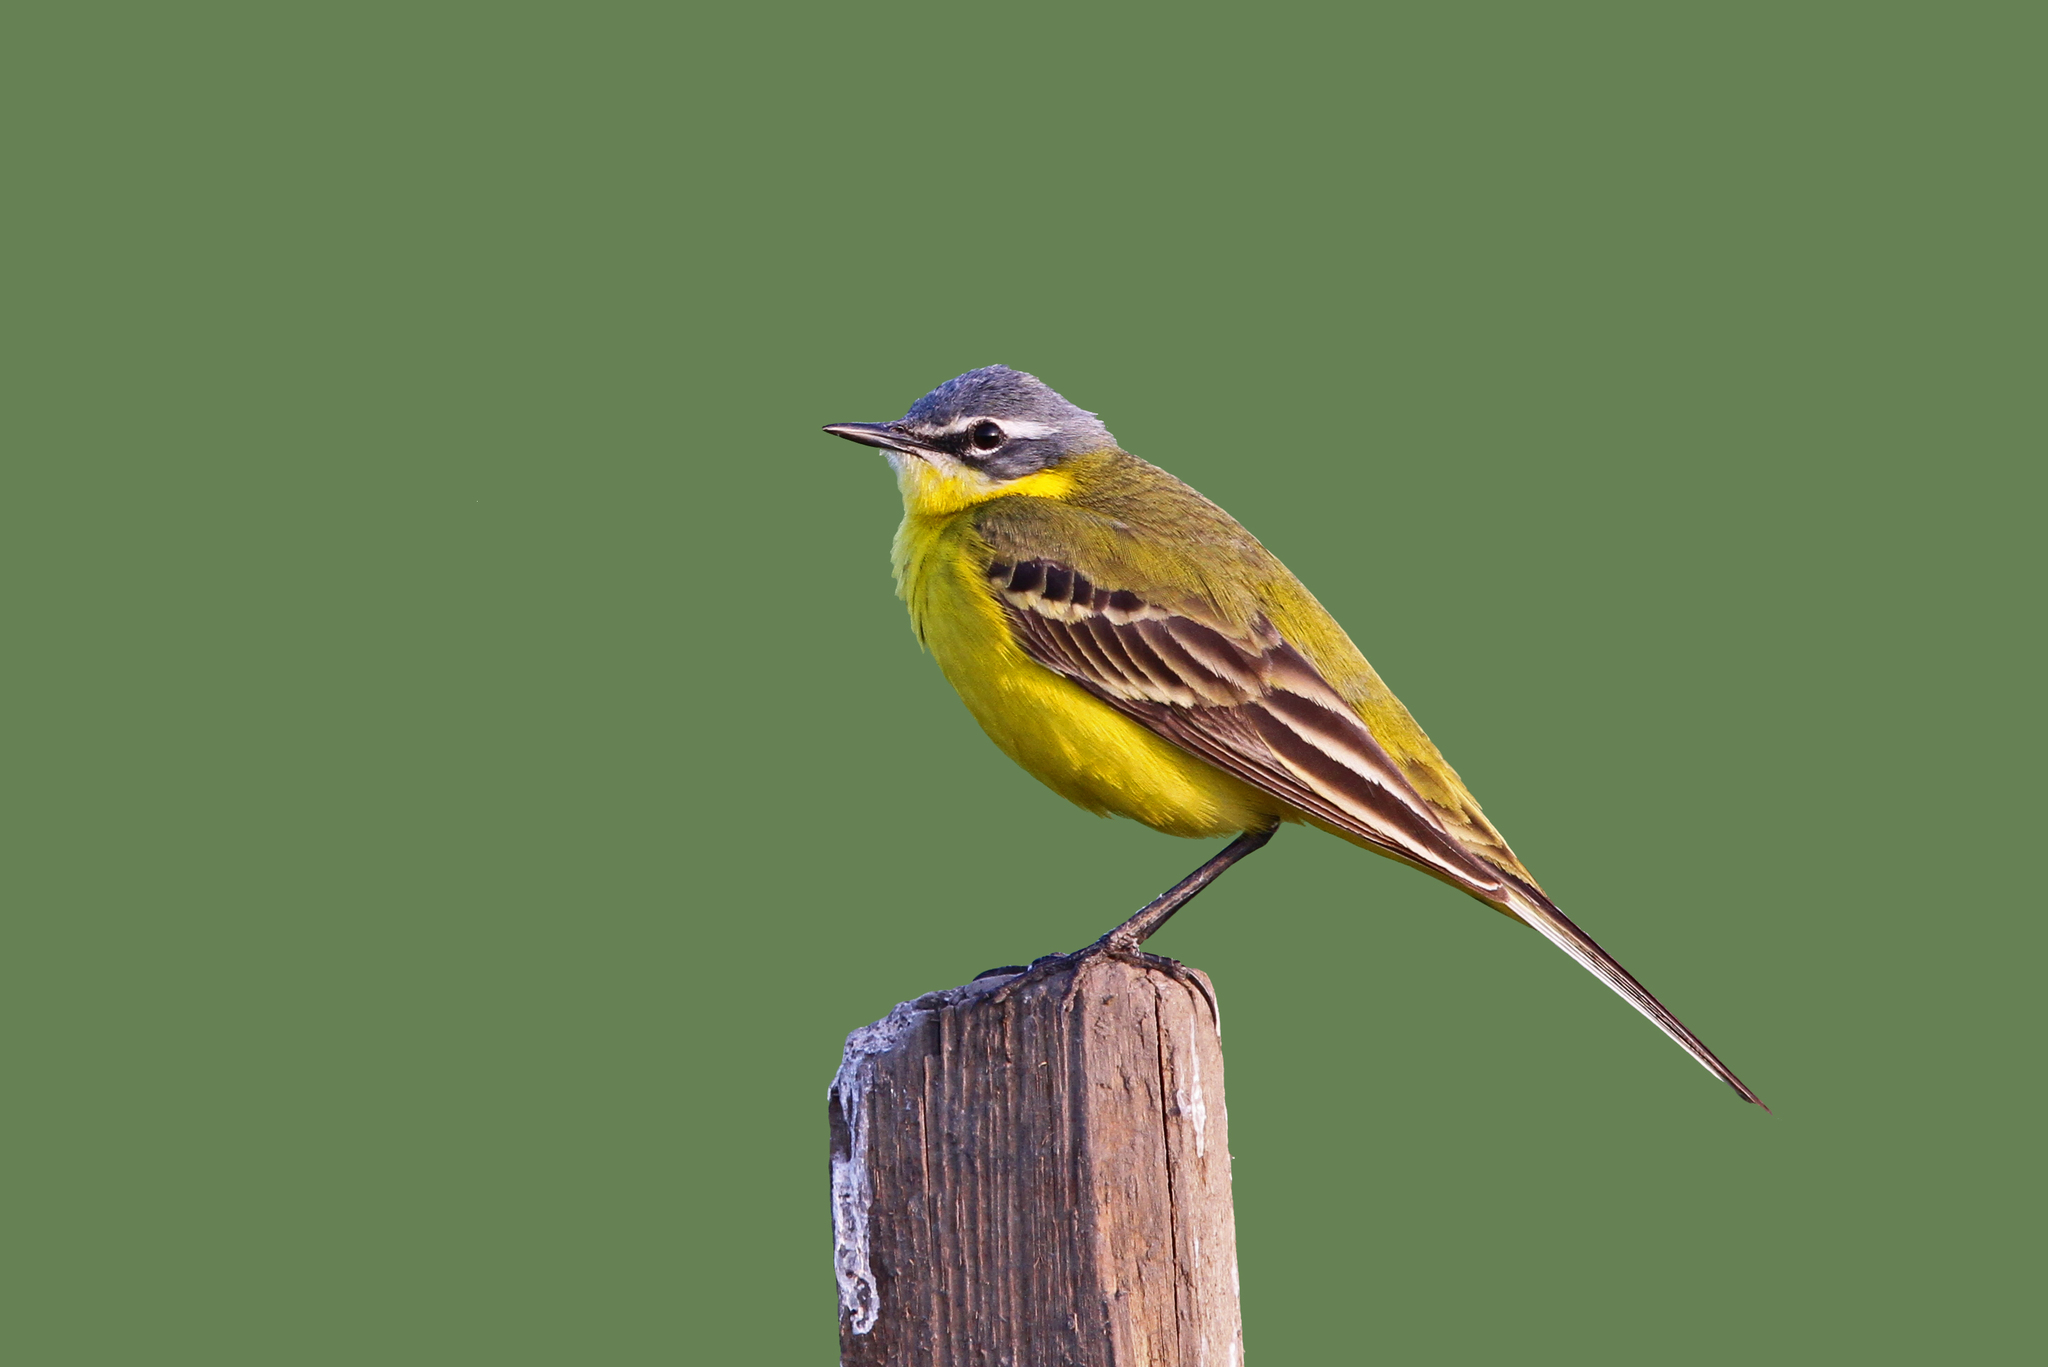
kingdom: Animalia
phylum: Chordata
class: Aves
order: Passeriformes
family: Motacillidae
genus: Motacilla
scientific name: Motacilla flava
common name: Western yellow wagtail
